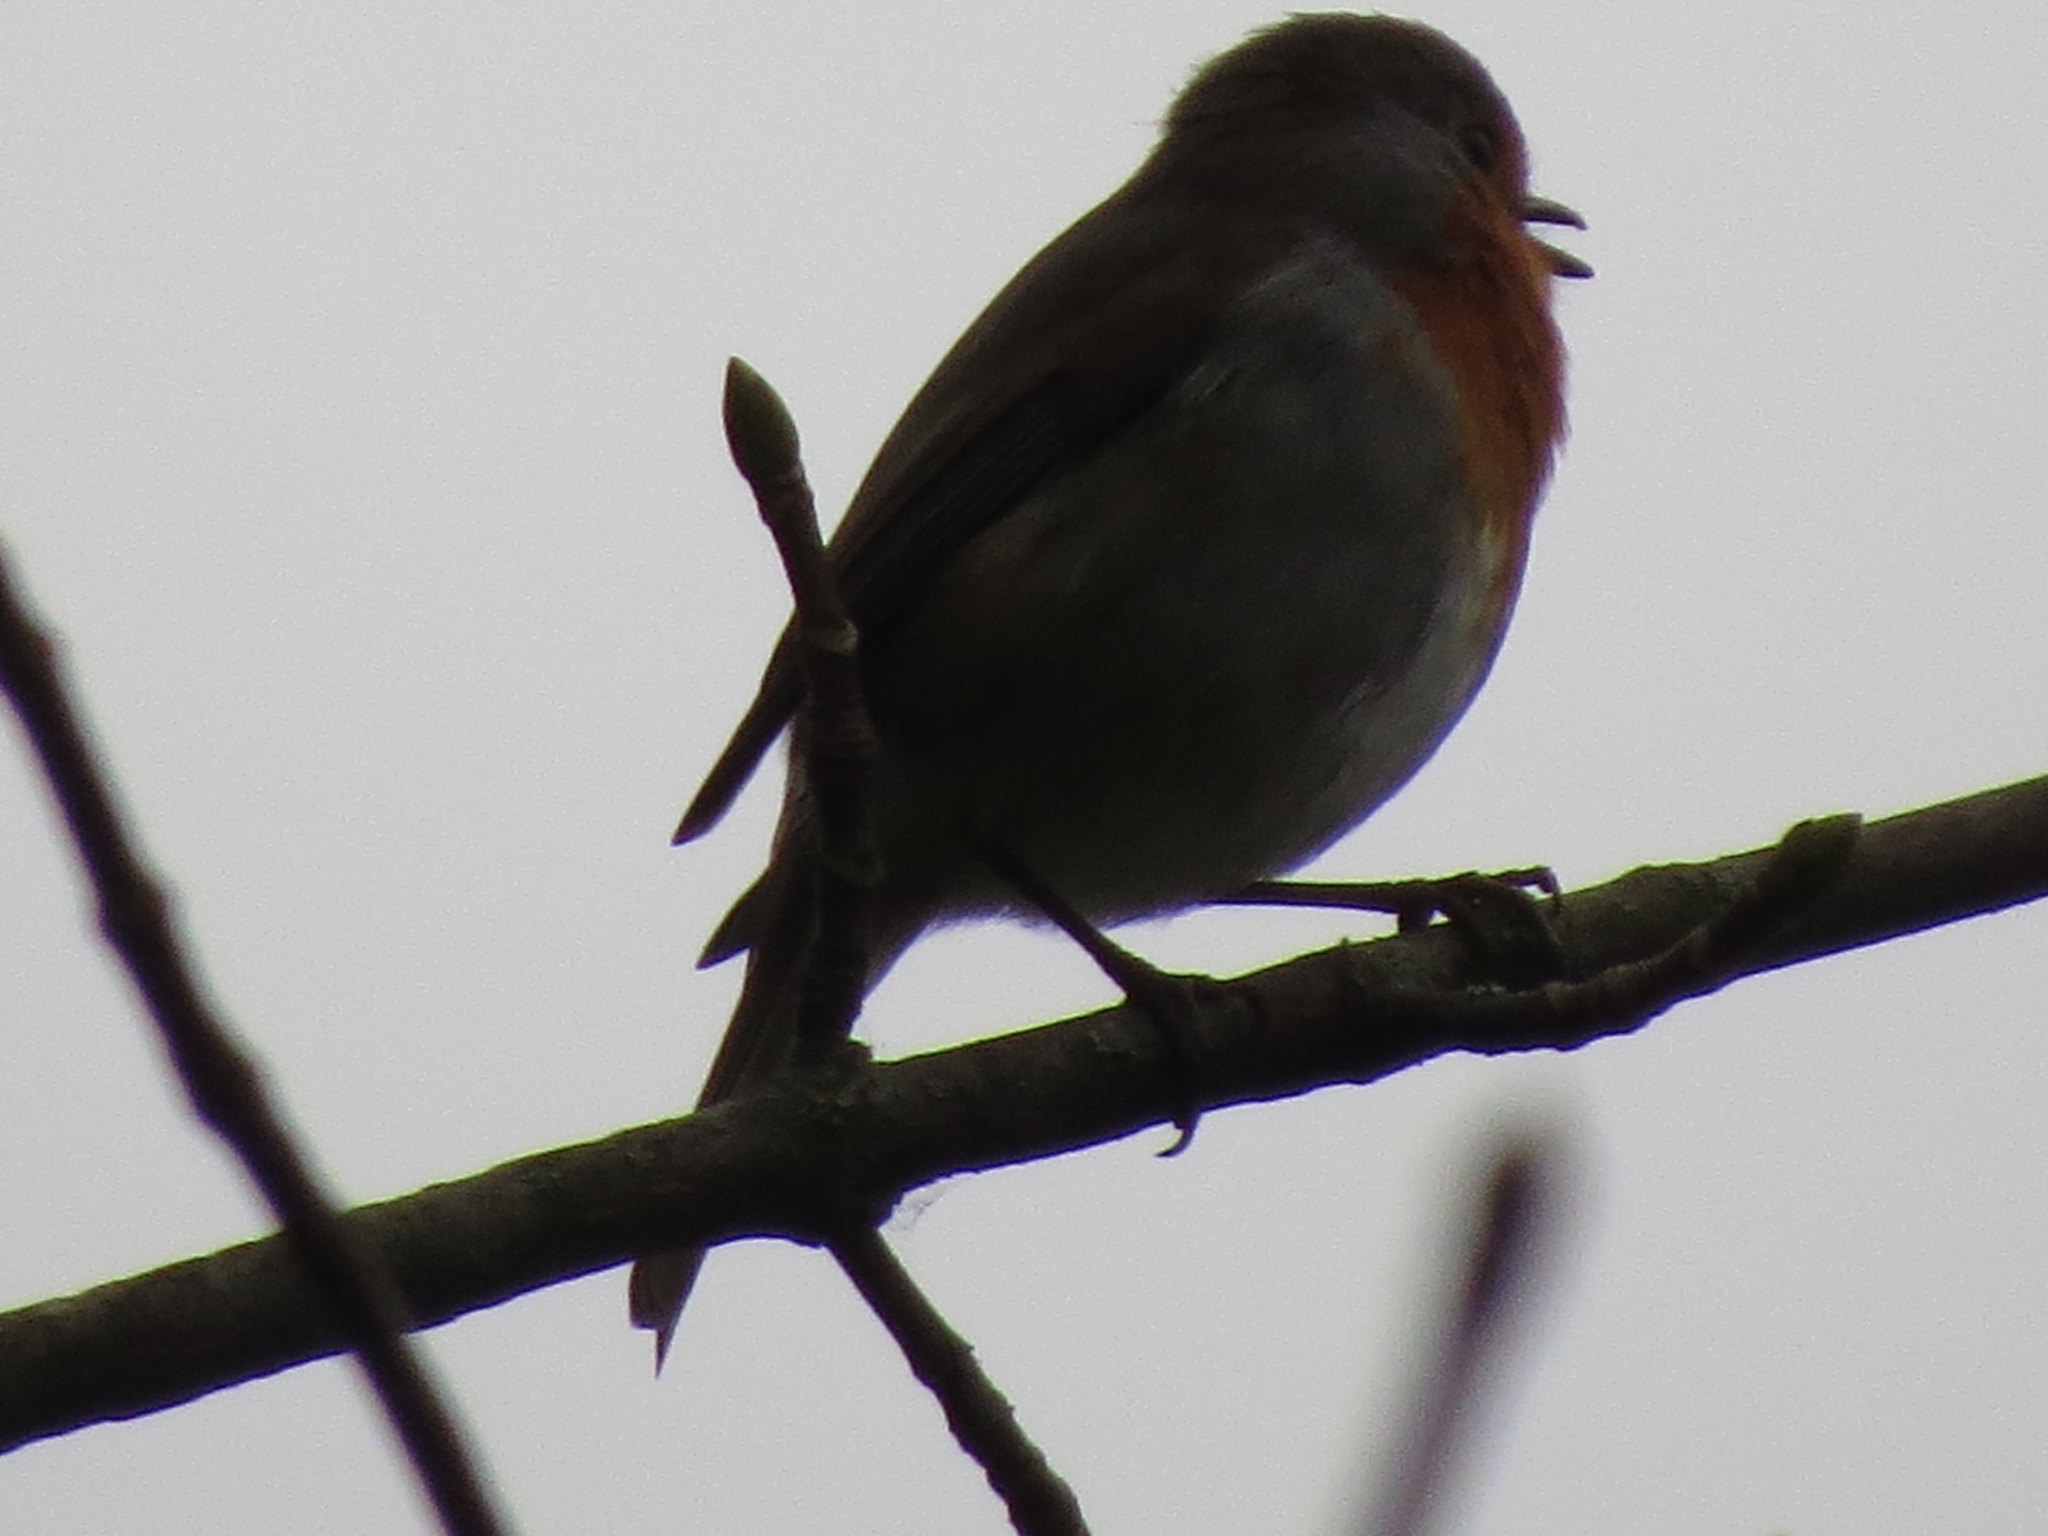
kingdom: Animalia
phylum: Chordata
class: Aves
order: Passeriformes
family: Muscicapidae
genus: Erithacus
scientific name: Erithacus rubecula
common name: European robin
